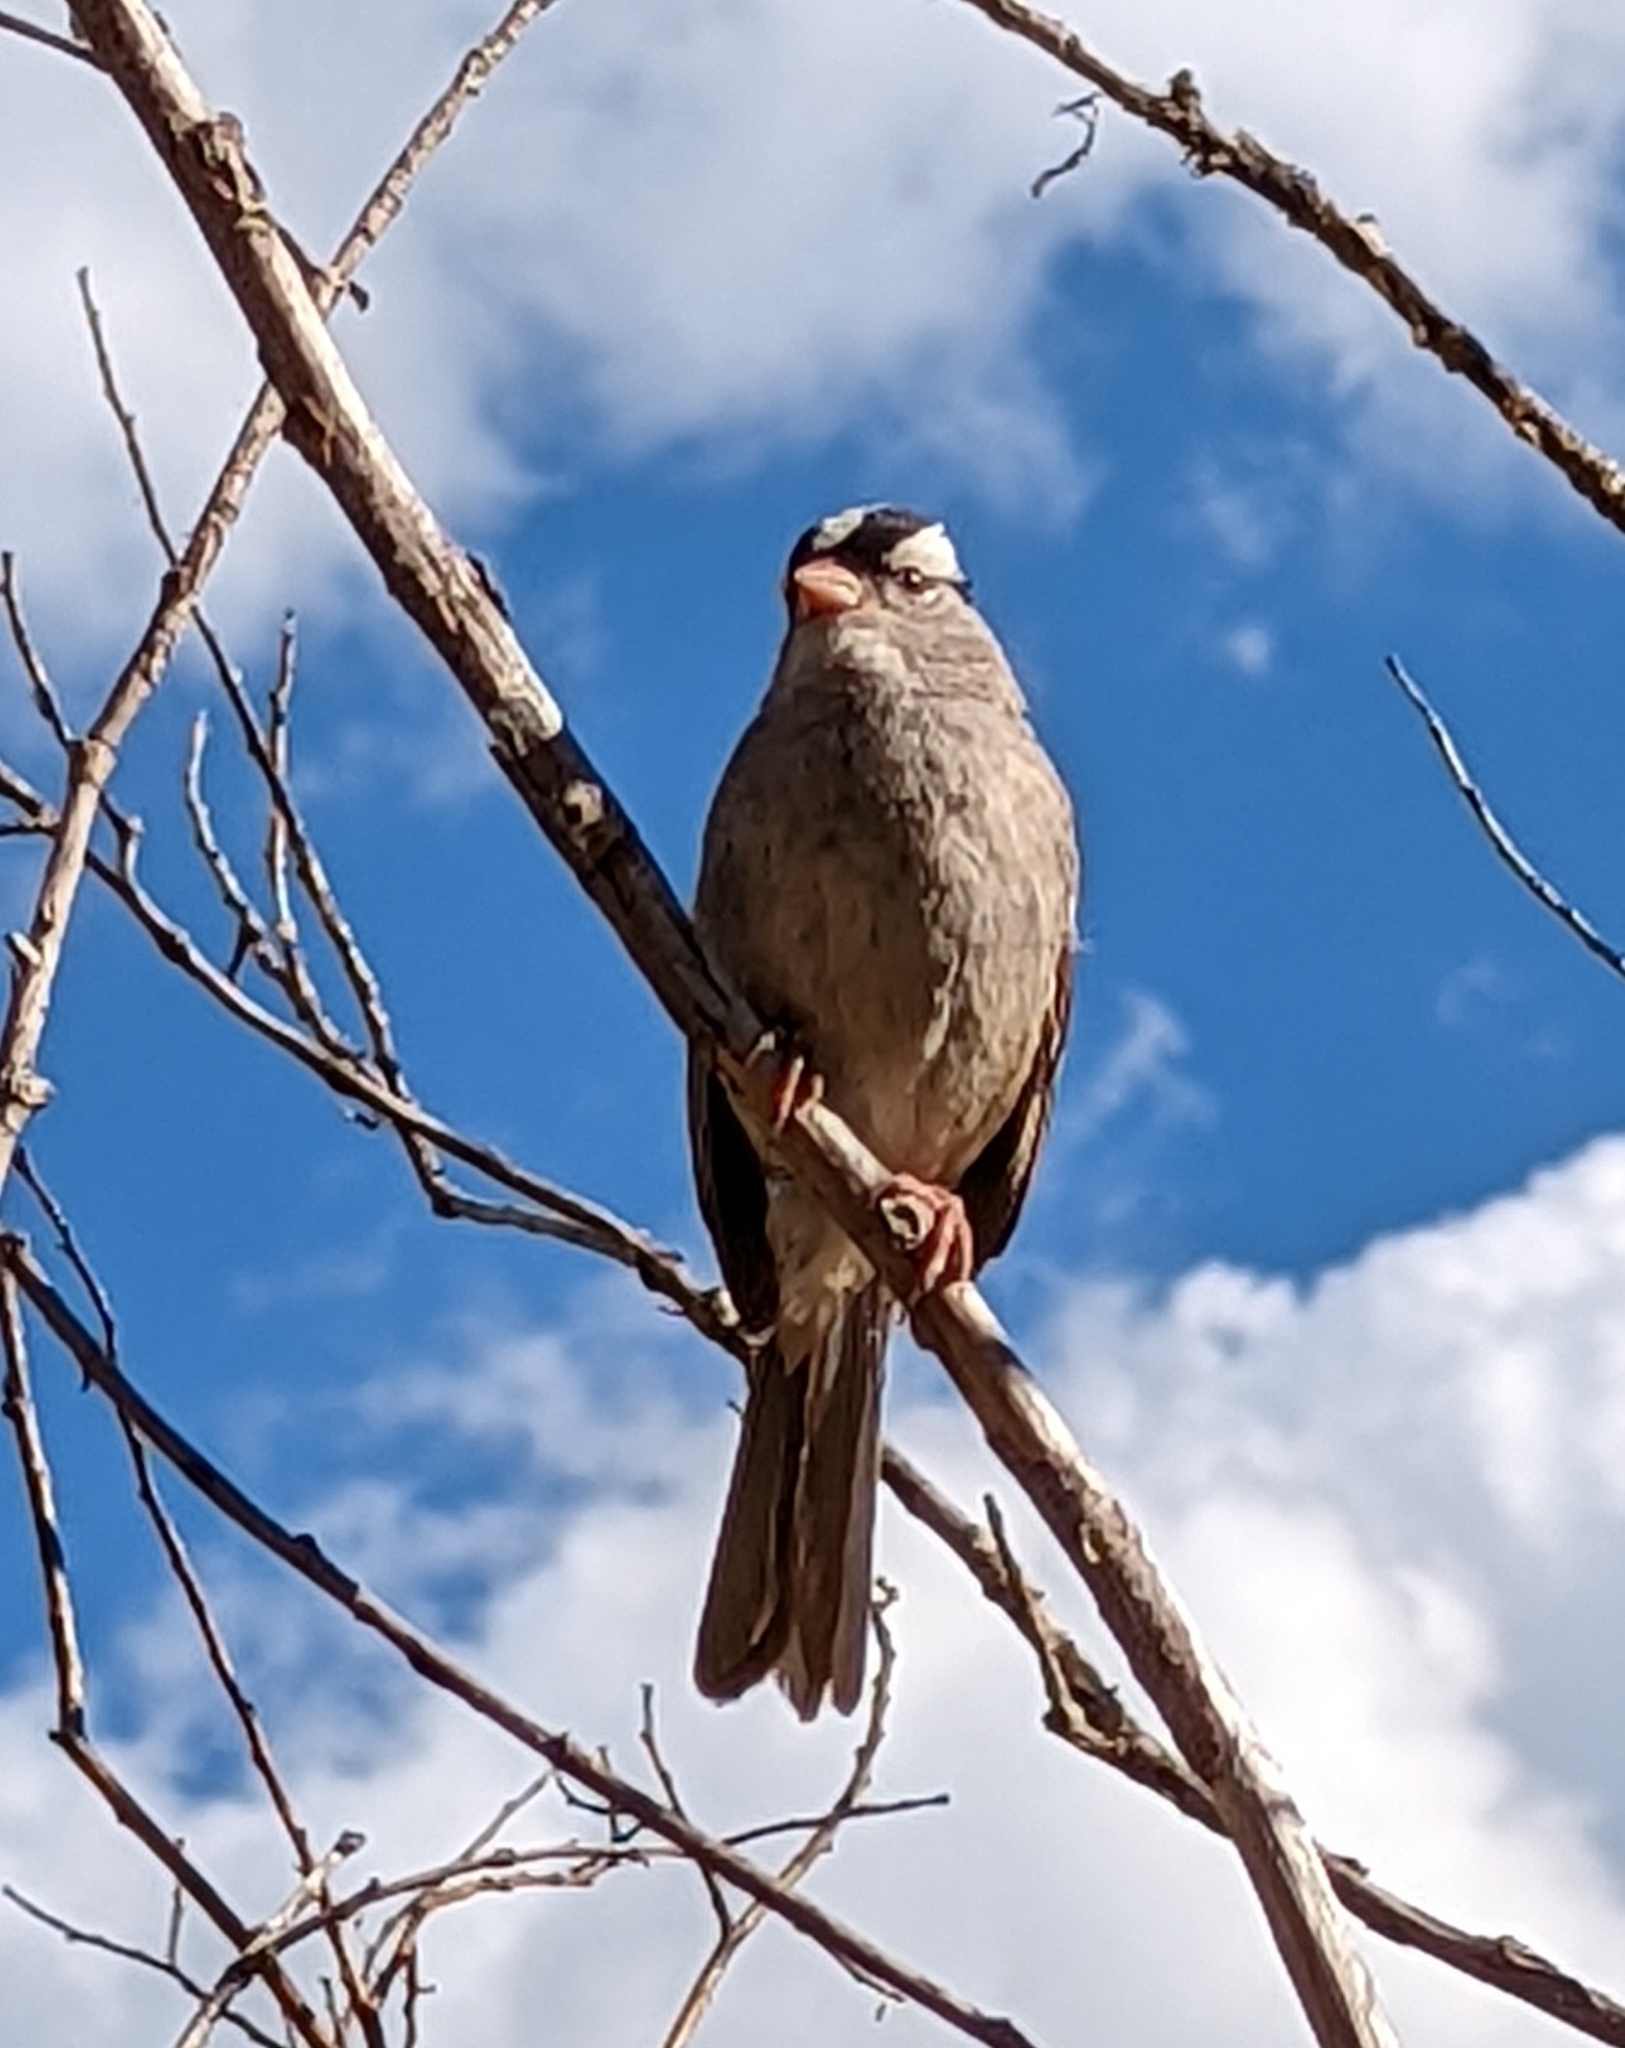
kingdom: Animalia
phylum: Chordata
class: Aves
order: Passeriformes
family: Passerellidae
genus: Zonotrichia
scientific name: Zonotrichia leucophrys
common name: White-crowned sparrow
